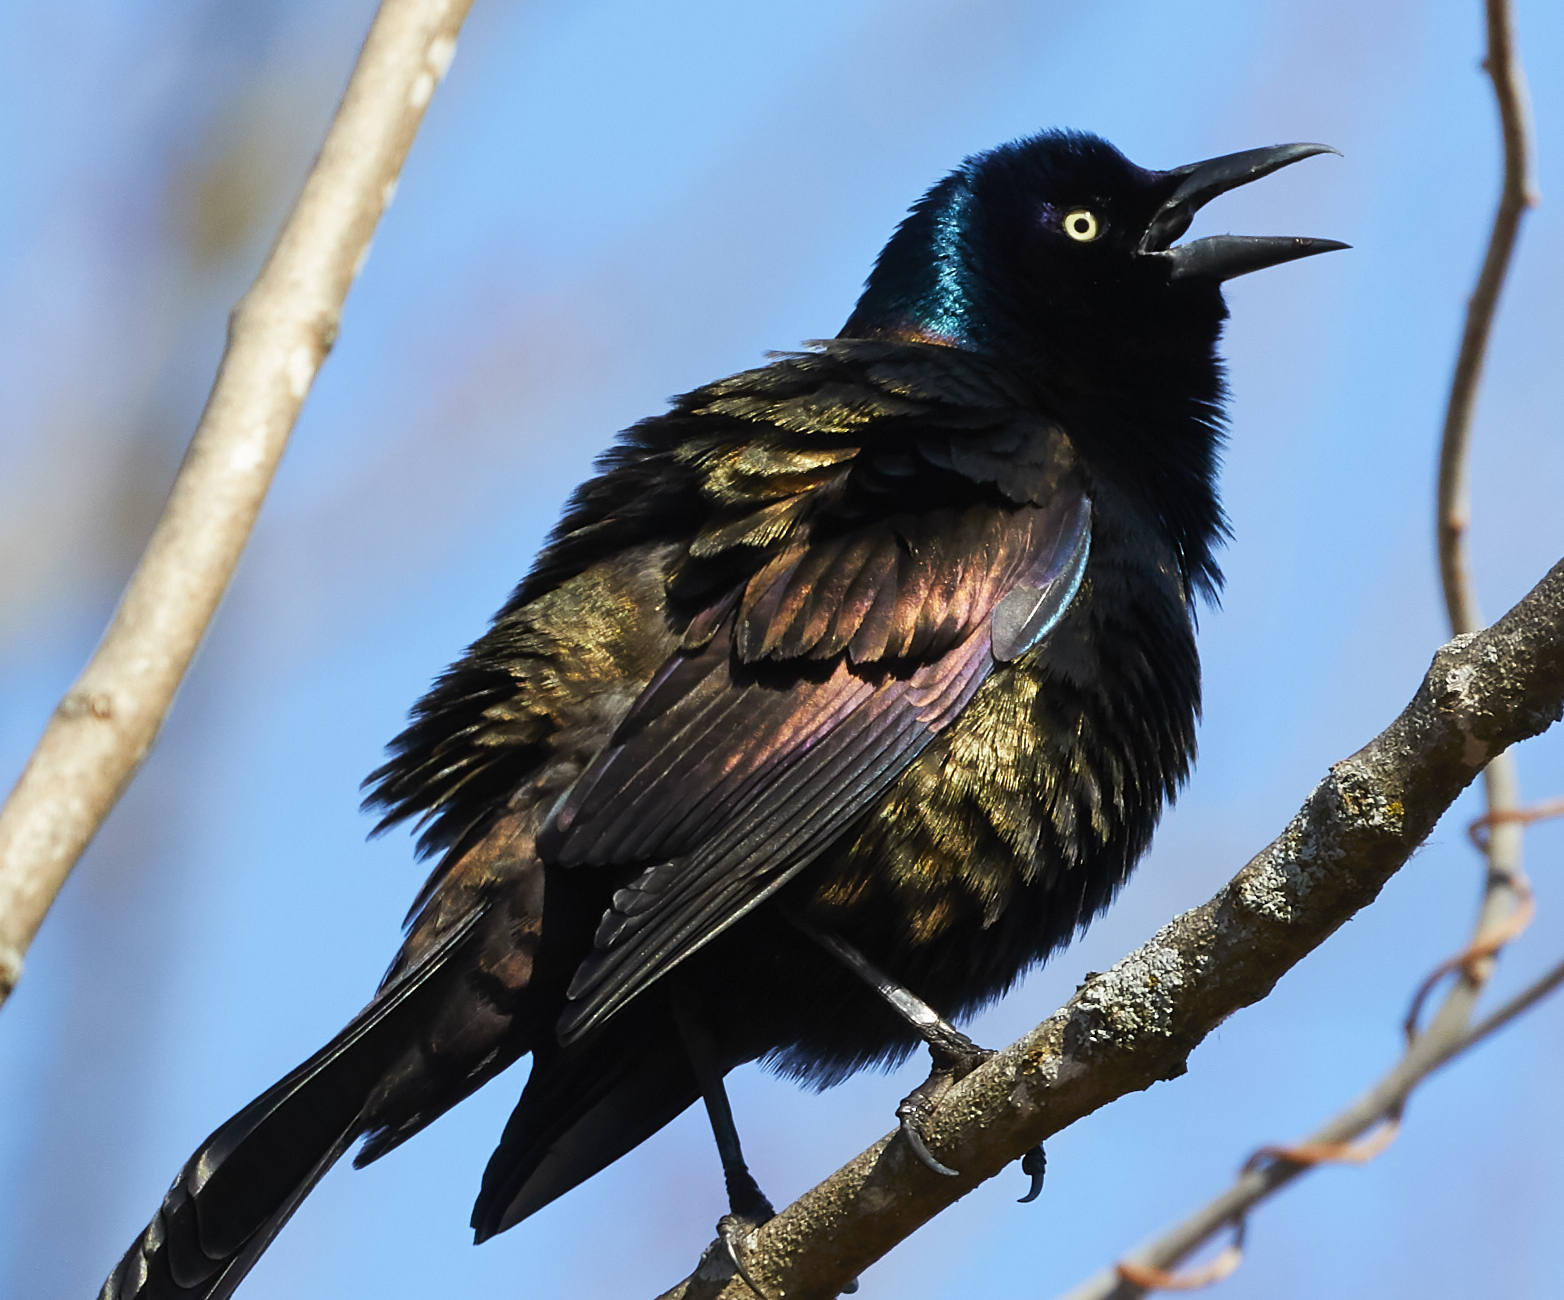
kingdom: Animalia
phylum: Chordata
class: Aves
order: Passeriformes
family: Icteridae
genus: Quiscalus
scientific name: Quiscalus quiscula
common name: Common grackle
